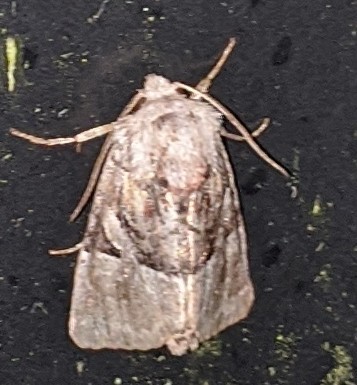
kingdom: Animalia
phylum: Arthropoda
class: Insecta
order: Lepidoptera
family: Noctuidae
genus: Meropleon
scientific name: Meropleon diversicolor
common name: Multicolored sedgeminer moth
